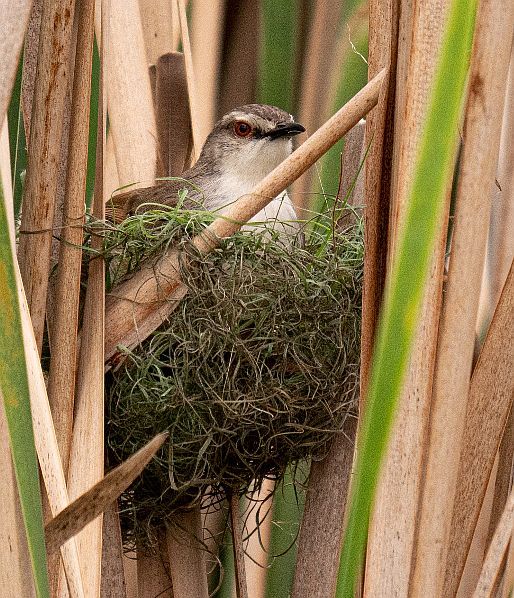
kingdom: Animalia
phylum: Chordata
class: Aves
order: Passeriformes
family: Cisticolidae
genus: Prinia
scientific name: Prinia subflava
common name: Tawny-flanked prinia
